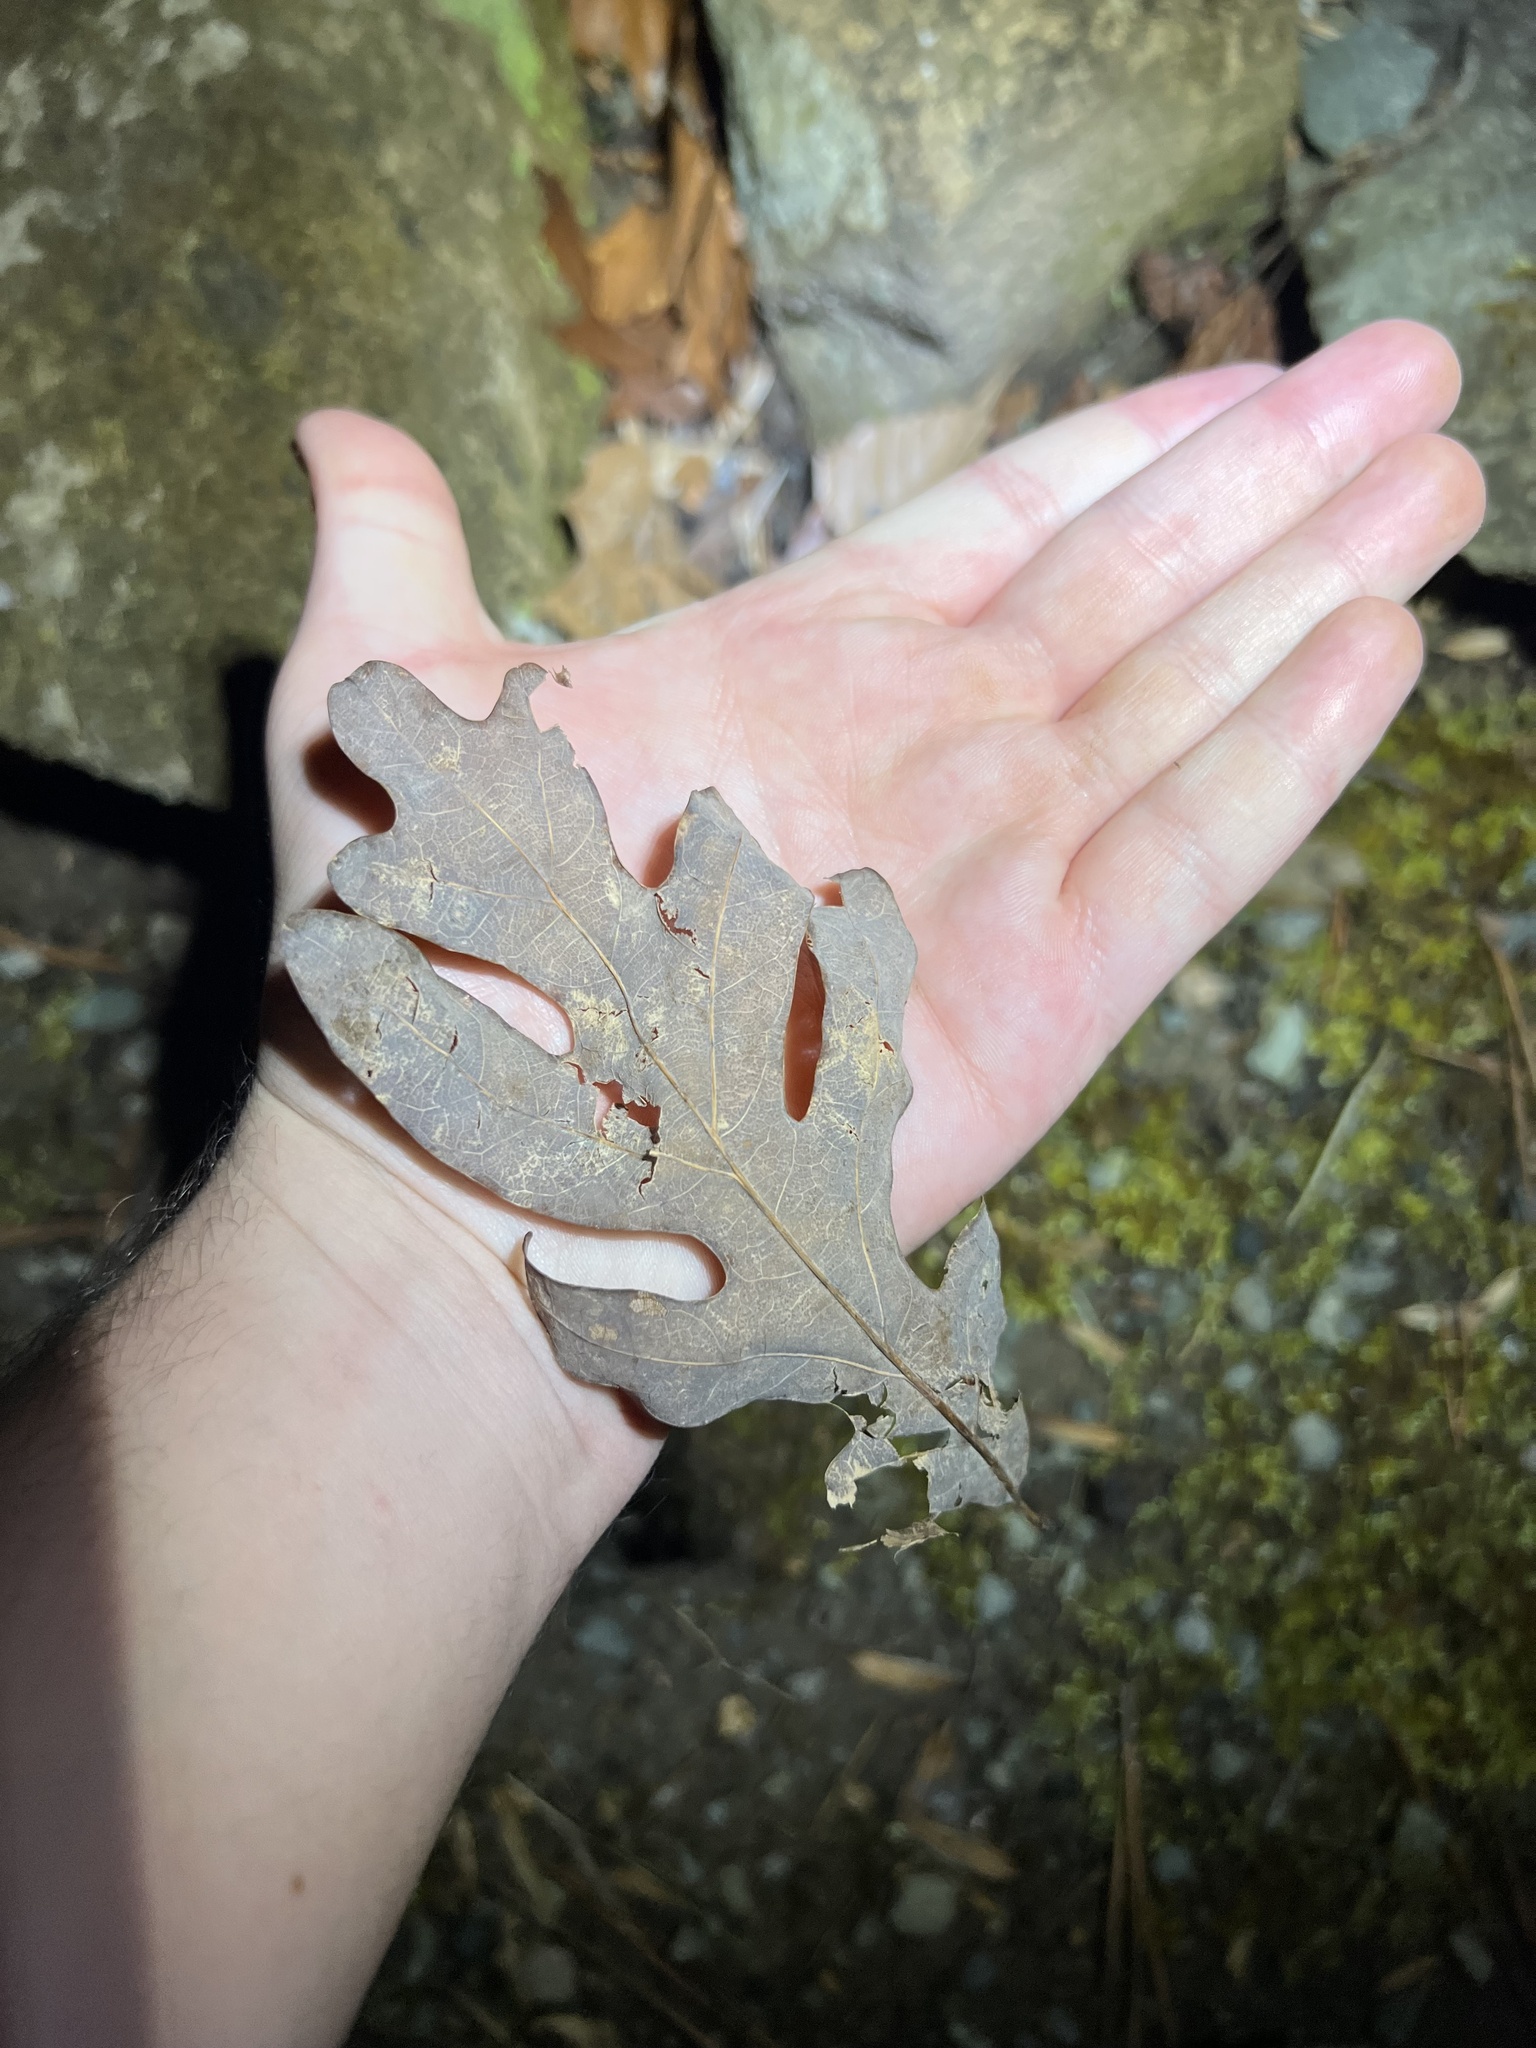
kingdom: Plantae
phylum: Tracheophyta
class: Magnoliopsida
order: Fagales
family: Fagaceae
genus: Quercus
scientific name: Quercus alba
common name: White oak
